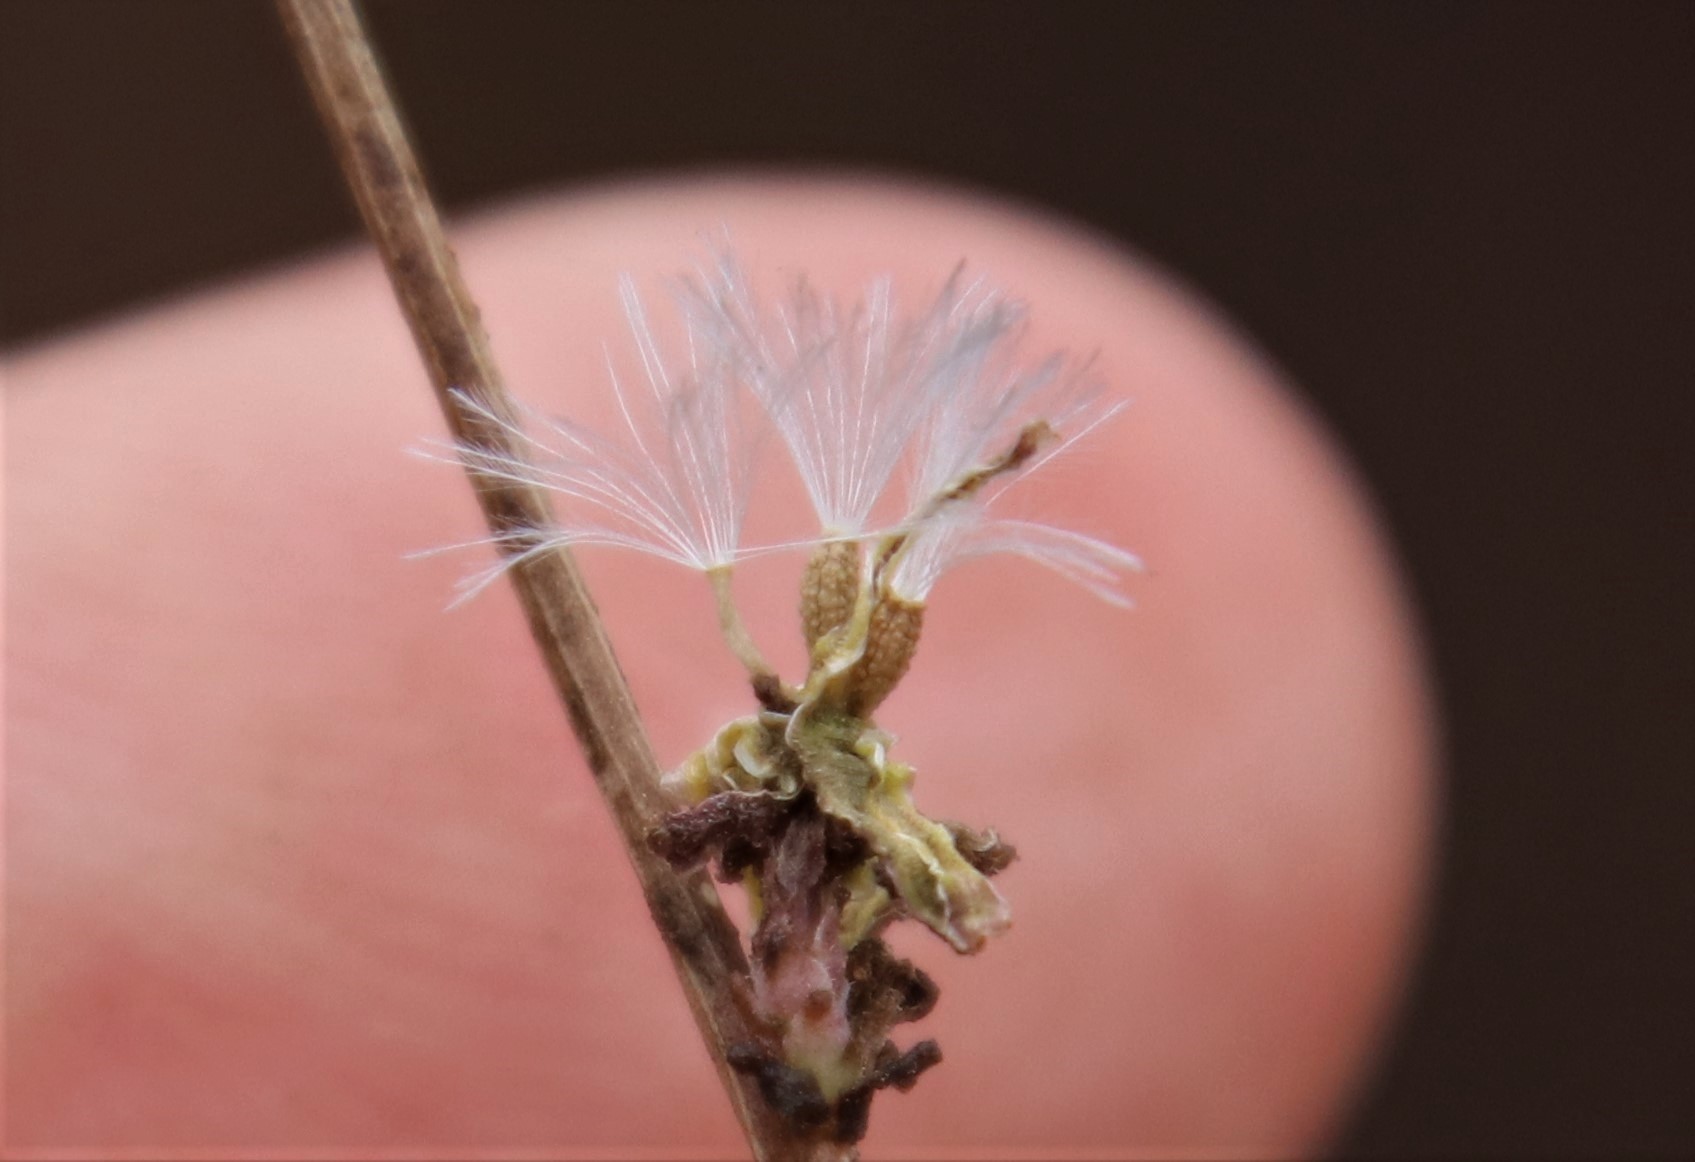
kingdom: Plantae
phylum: Tracheophyta
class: Magnoliopsida
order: Asterales
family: Asteraceae
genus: Stephanomeria
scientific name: Stephanomeria diegensis
